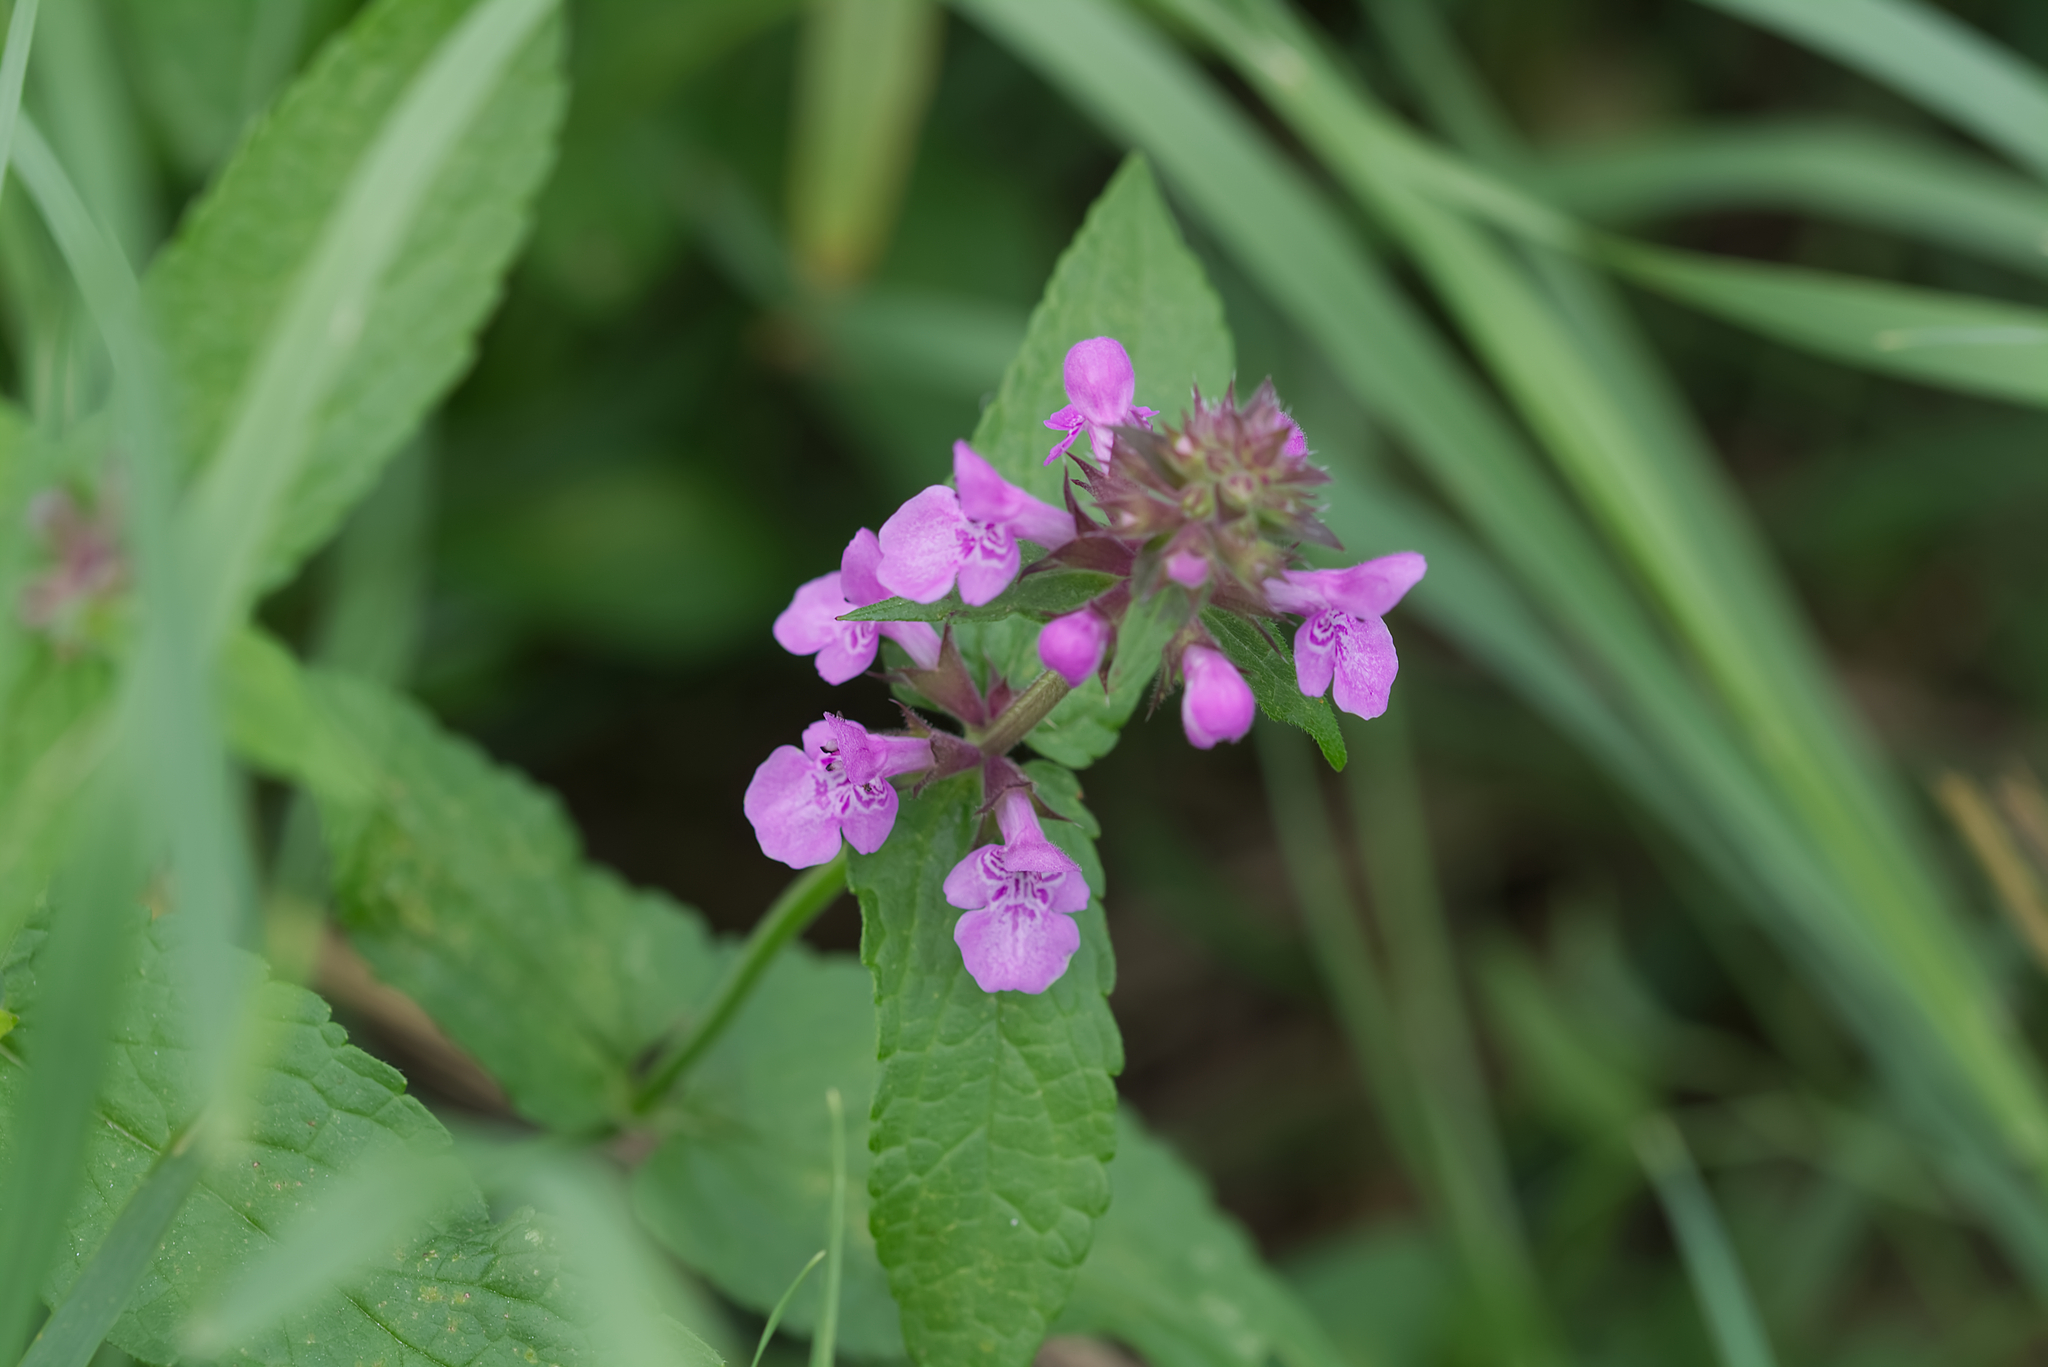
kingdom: Plantae
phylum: Tracheophyta
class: Magnoliopsida
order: Lamiales
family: Lamiaceae
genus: Stachys
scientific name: Stachys palustris
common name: Marsh woundwort
